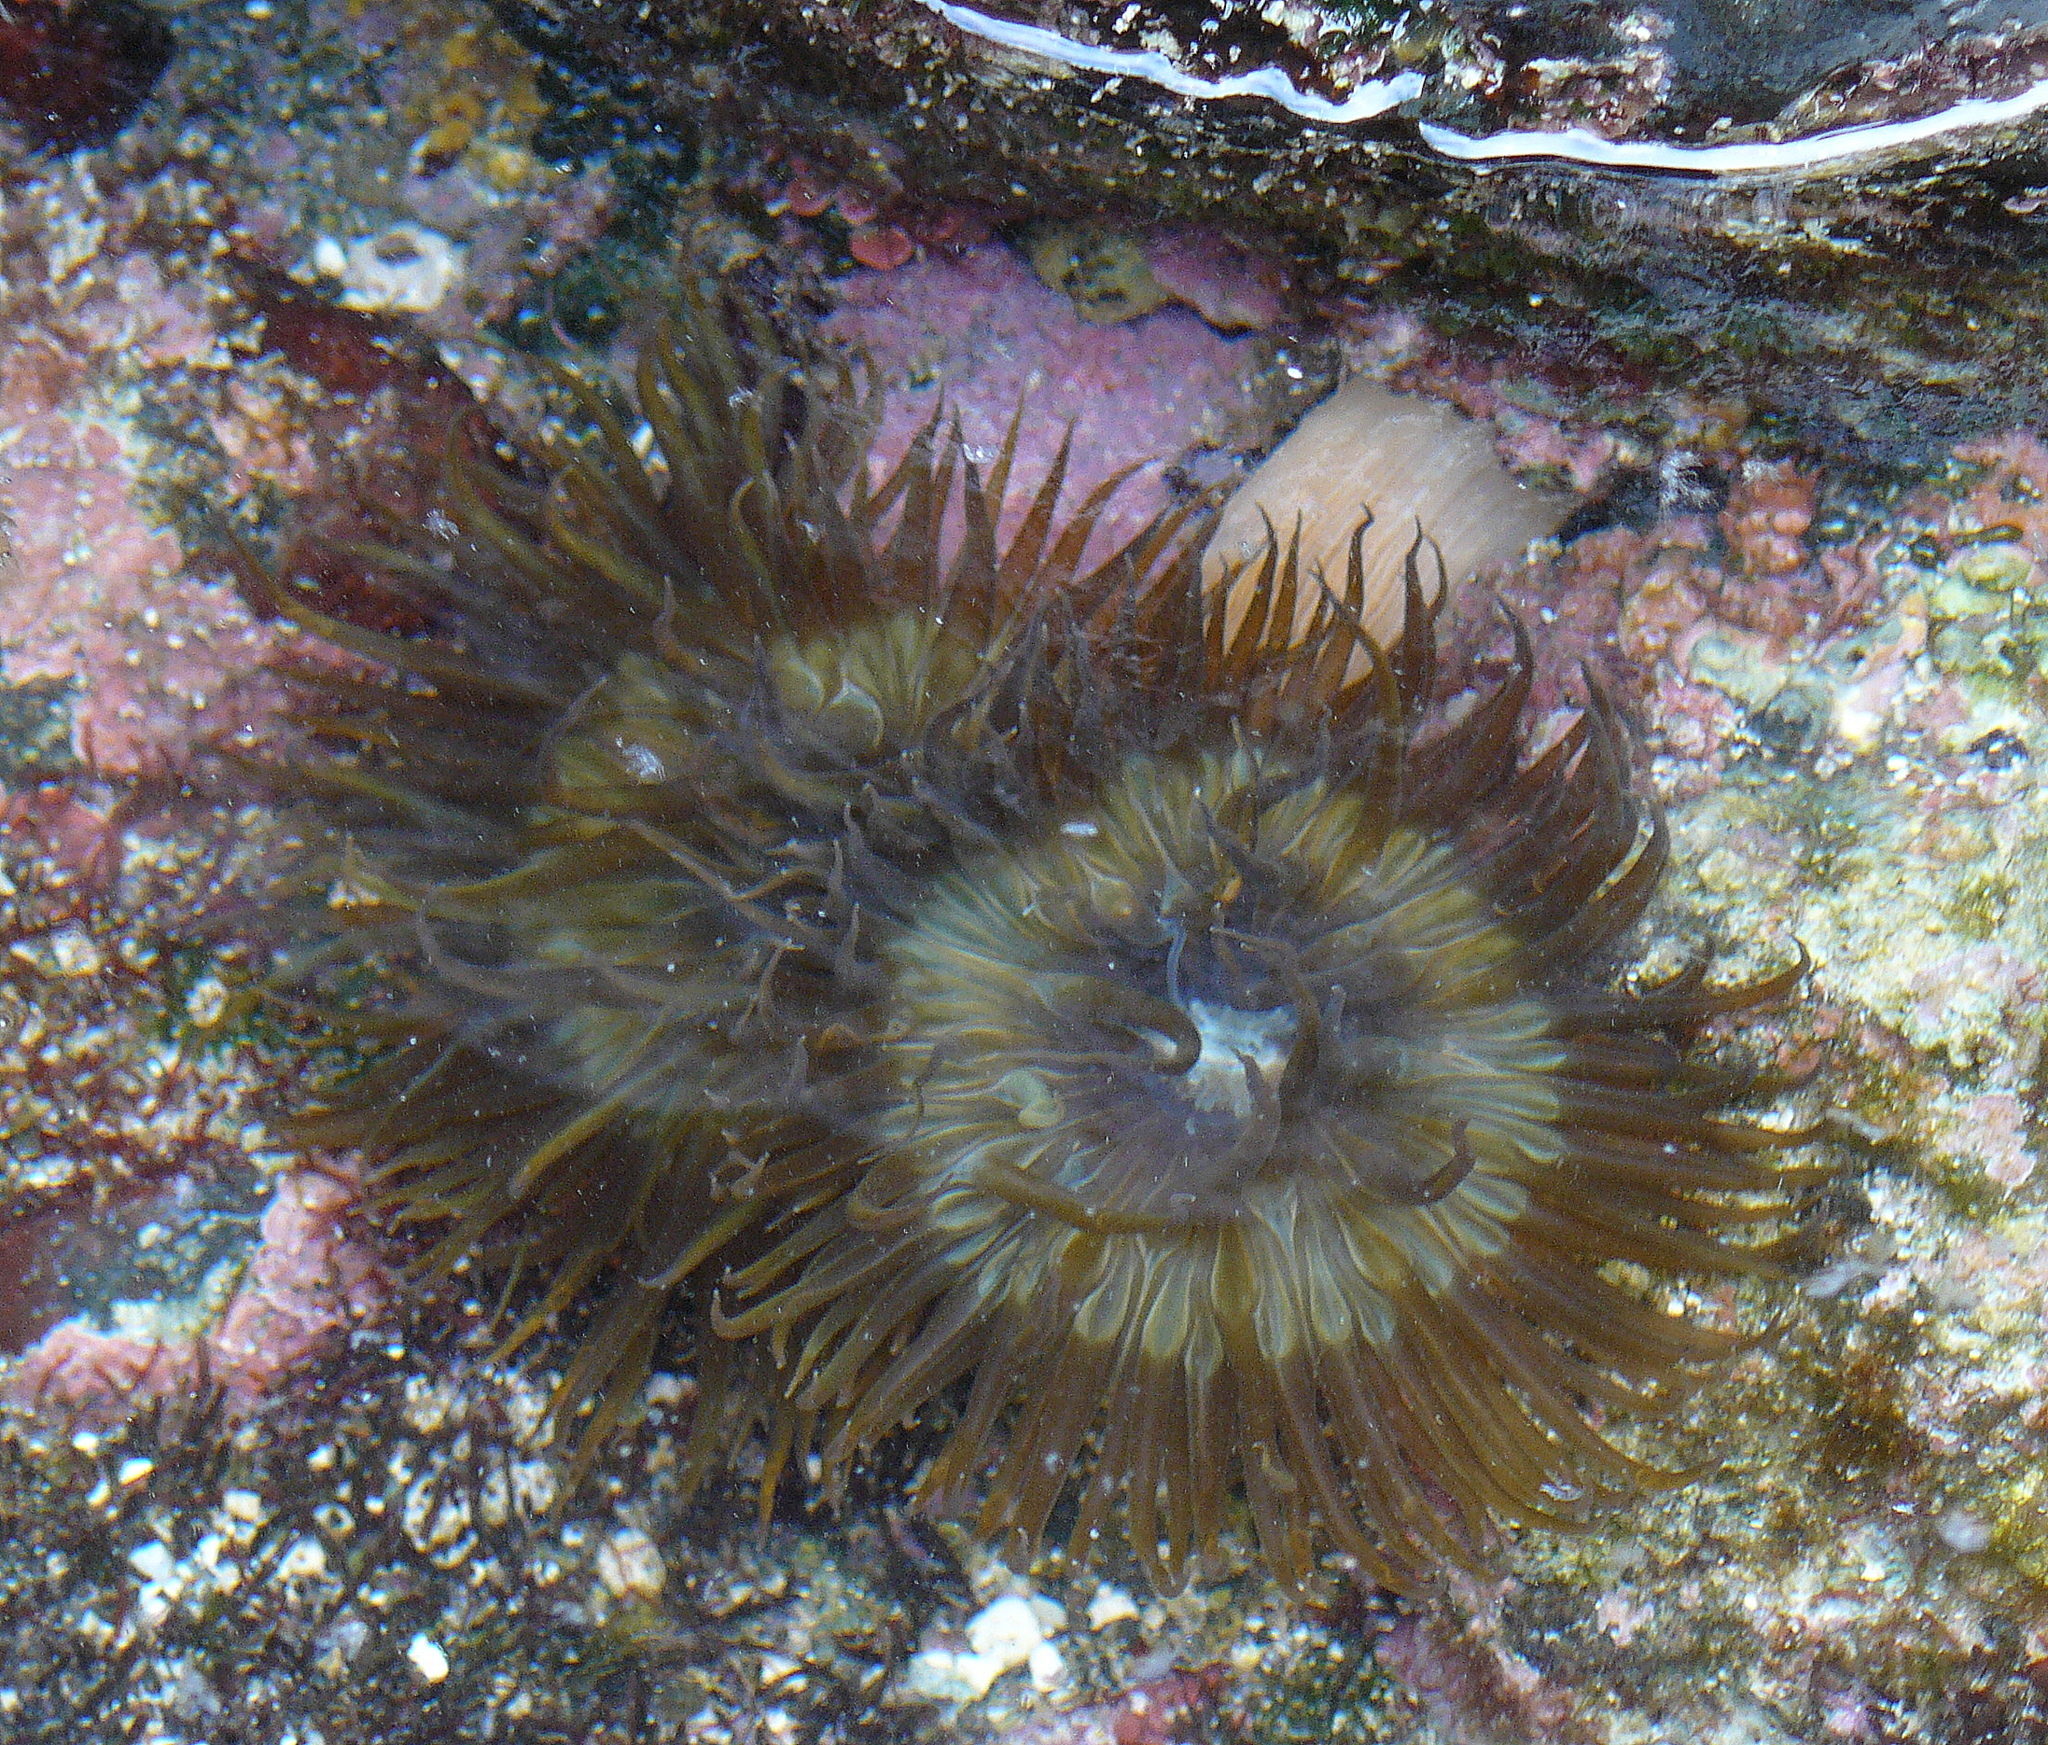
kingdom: Animalia
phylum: Cnidaria
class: Anthozoa
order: Actiniaria
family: Aiptasiidae
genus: Aiptasia
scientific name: Aiptasia couchii
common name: Trumpet anemone
